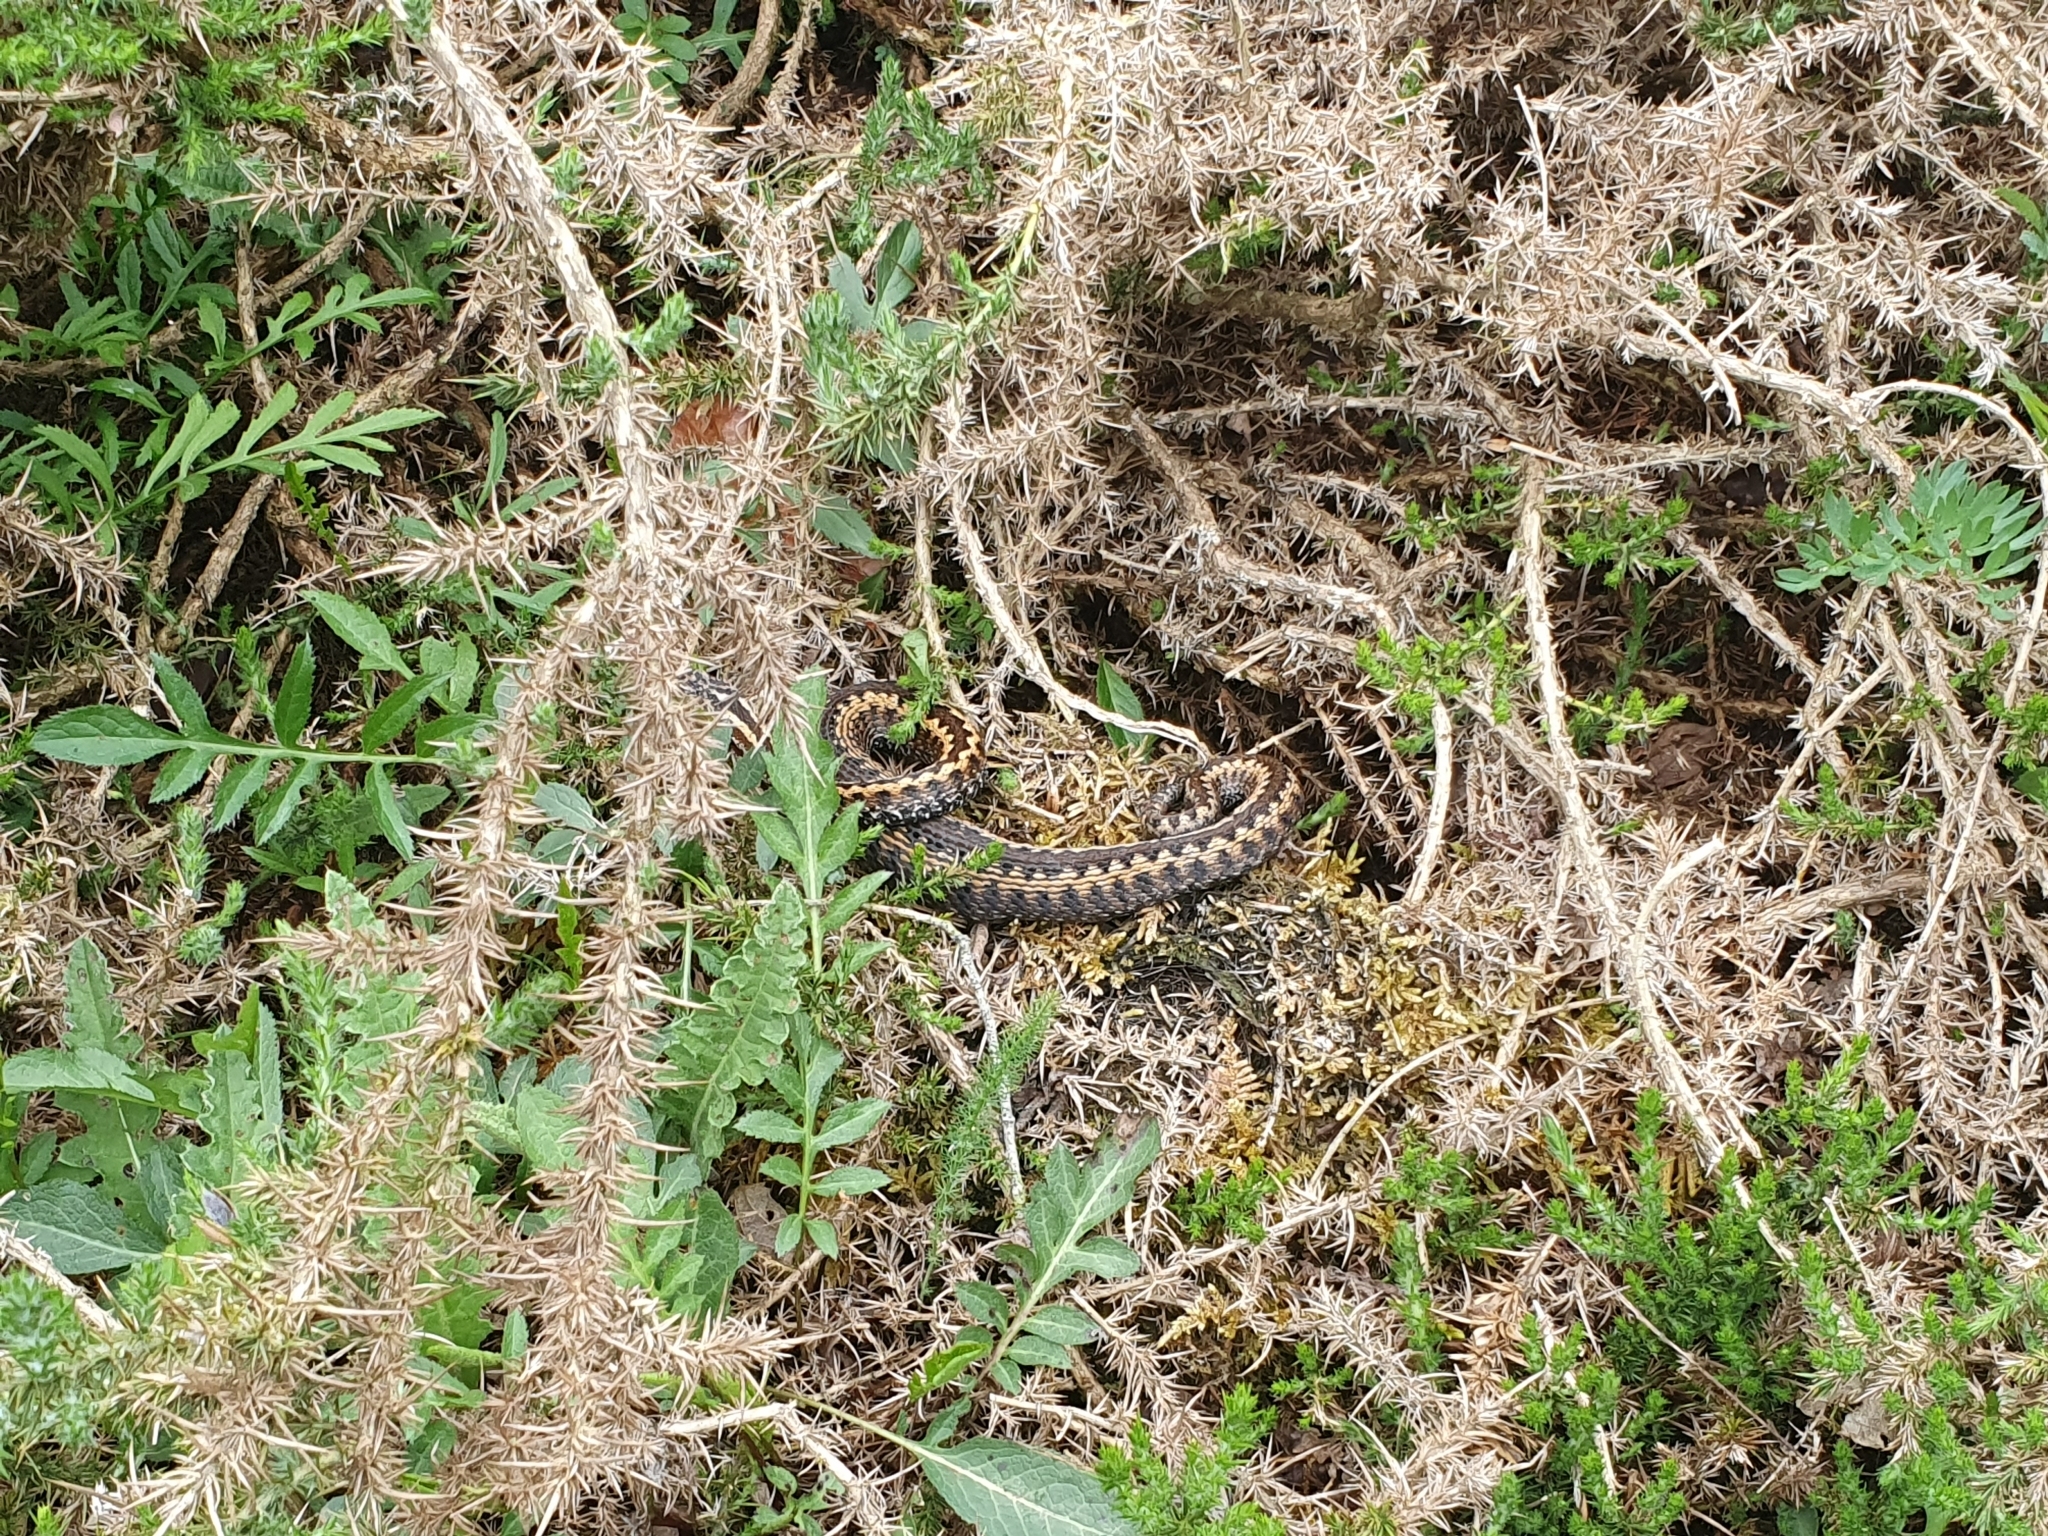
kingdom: Animalia
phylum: Chordata
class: Squamata
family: Viperidae
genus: Vipera
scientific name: Vipera seoanei
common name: Portugese viper
